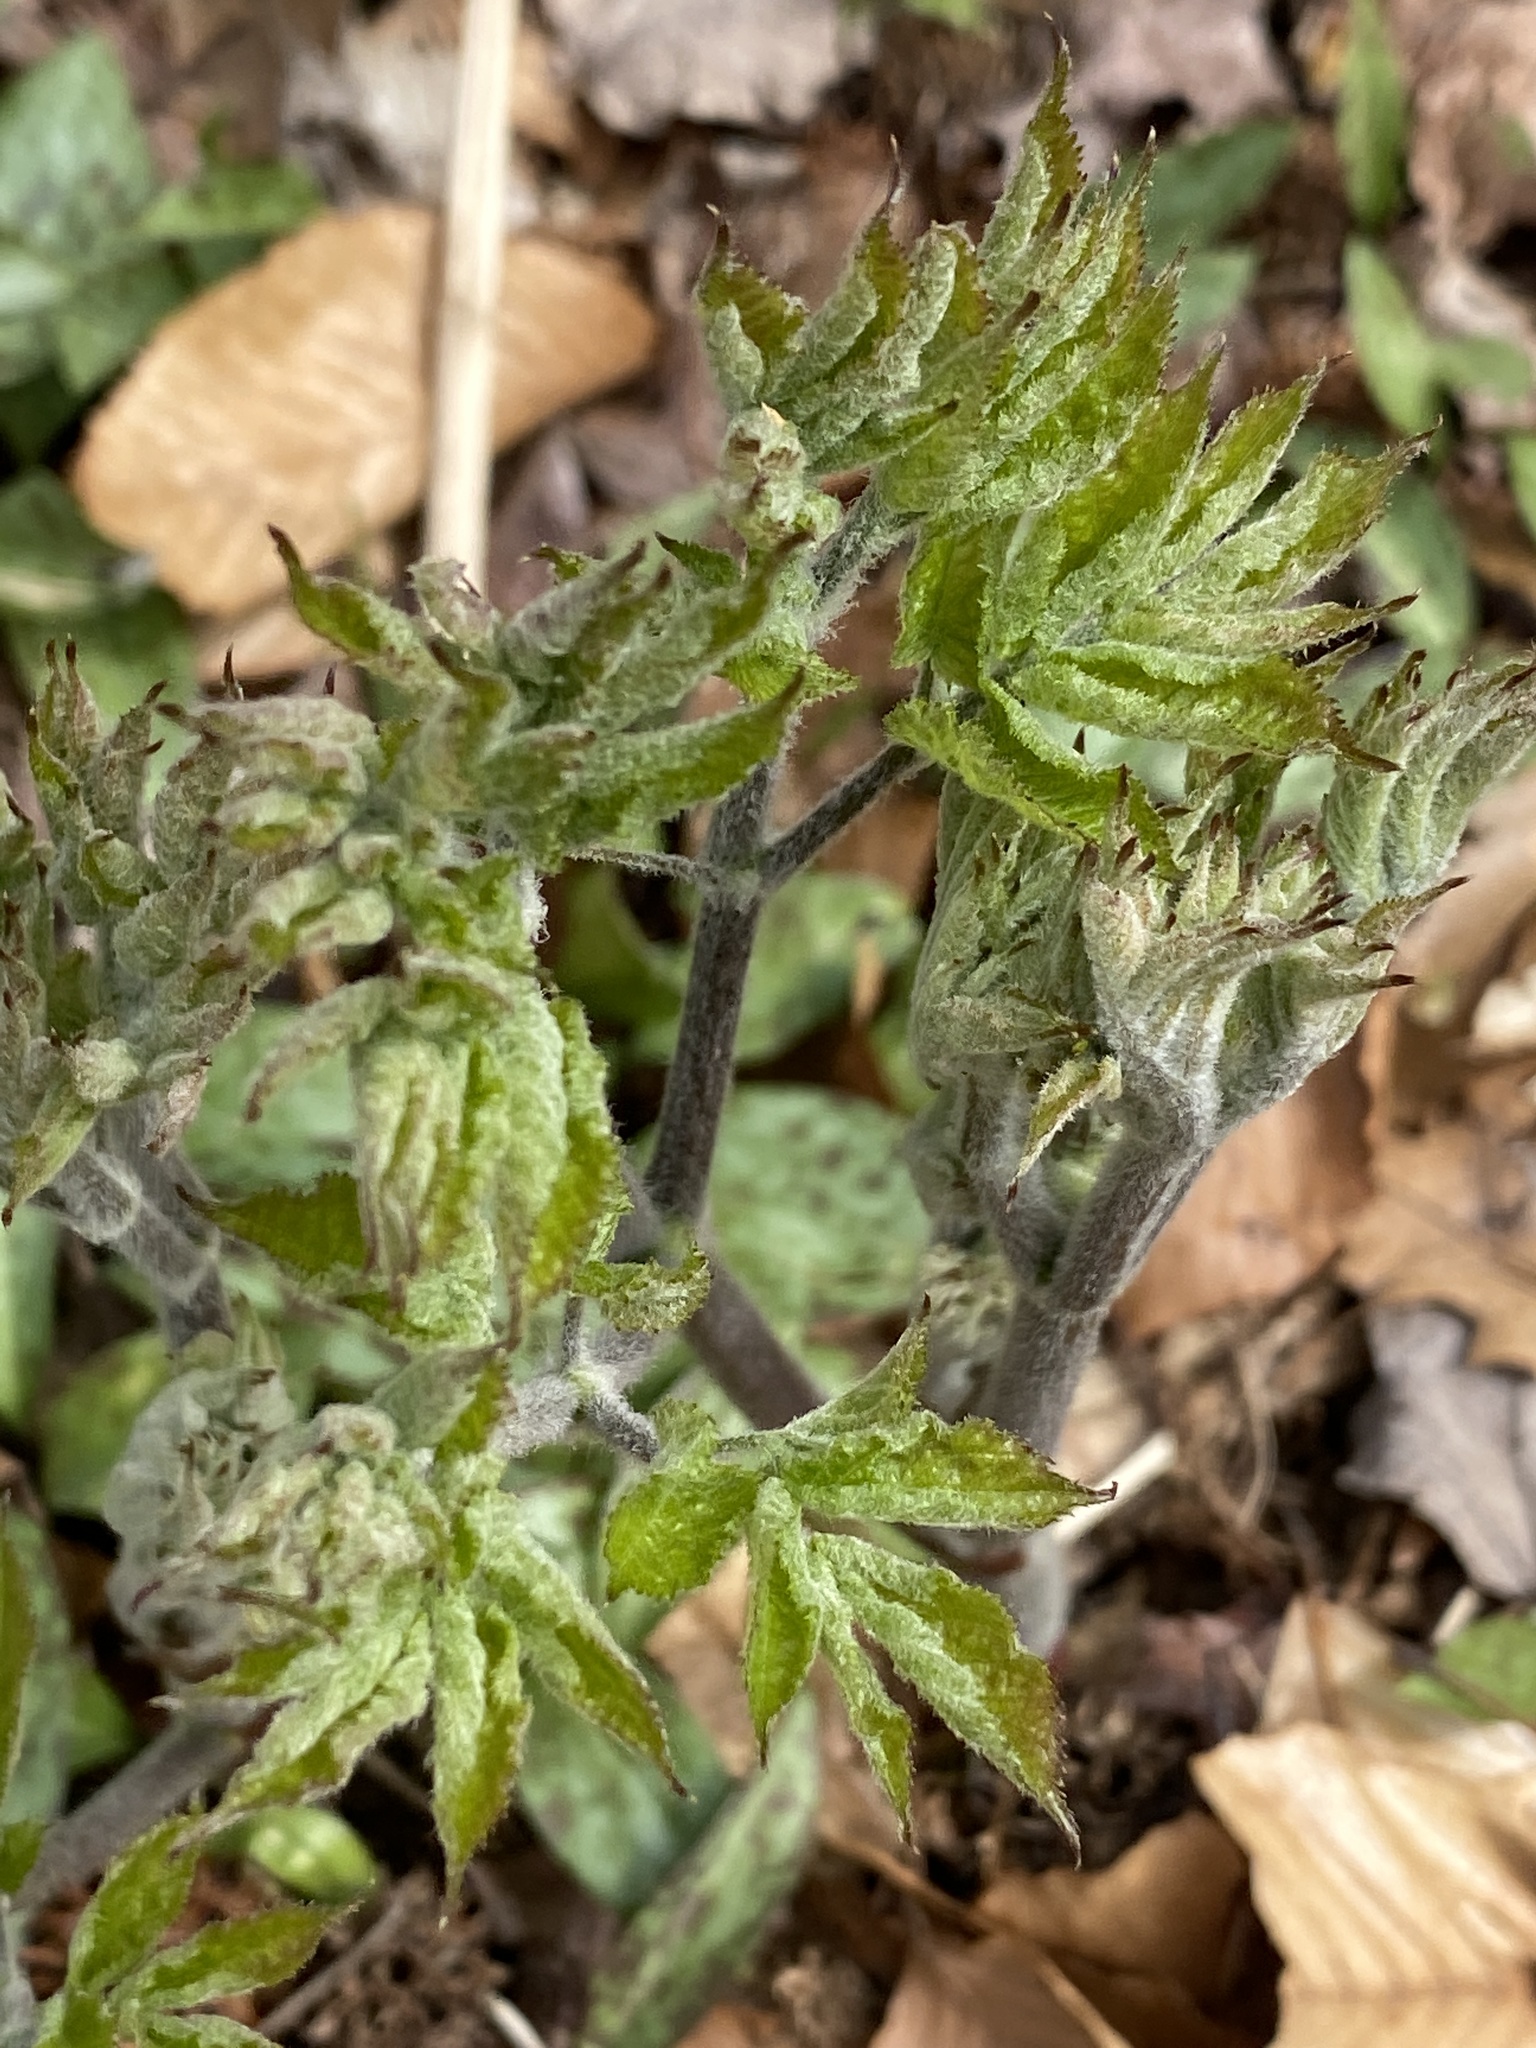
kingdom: Plantae
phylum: Tracheophyta
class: Magnoliopsida
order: Apiales
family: Araliaceae
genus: Aralia
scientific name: Aralia racemosa
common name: American-spikenard
